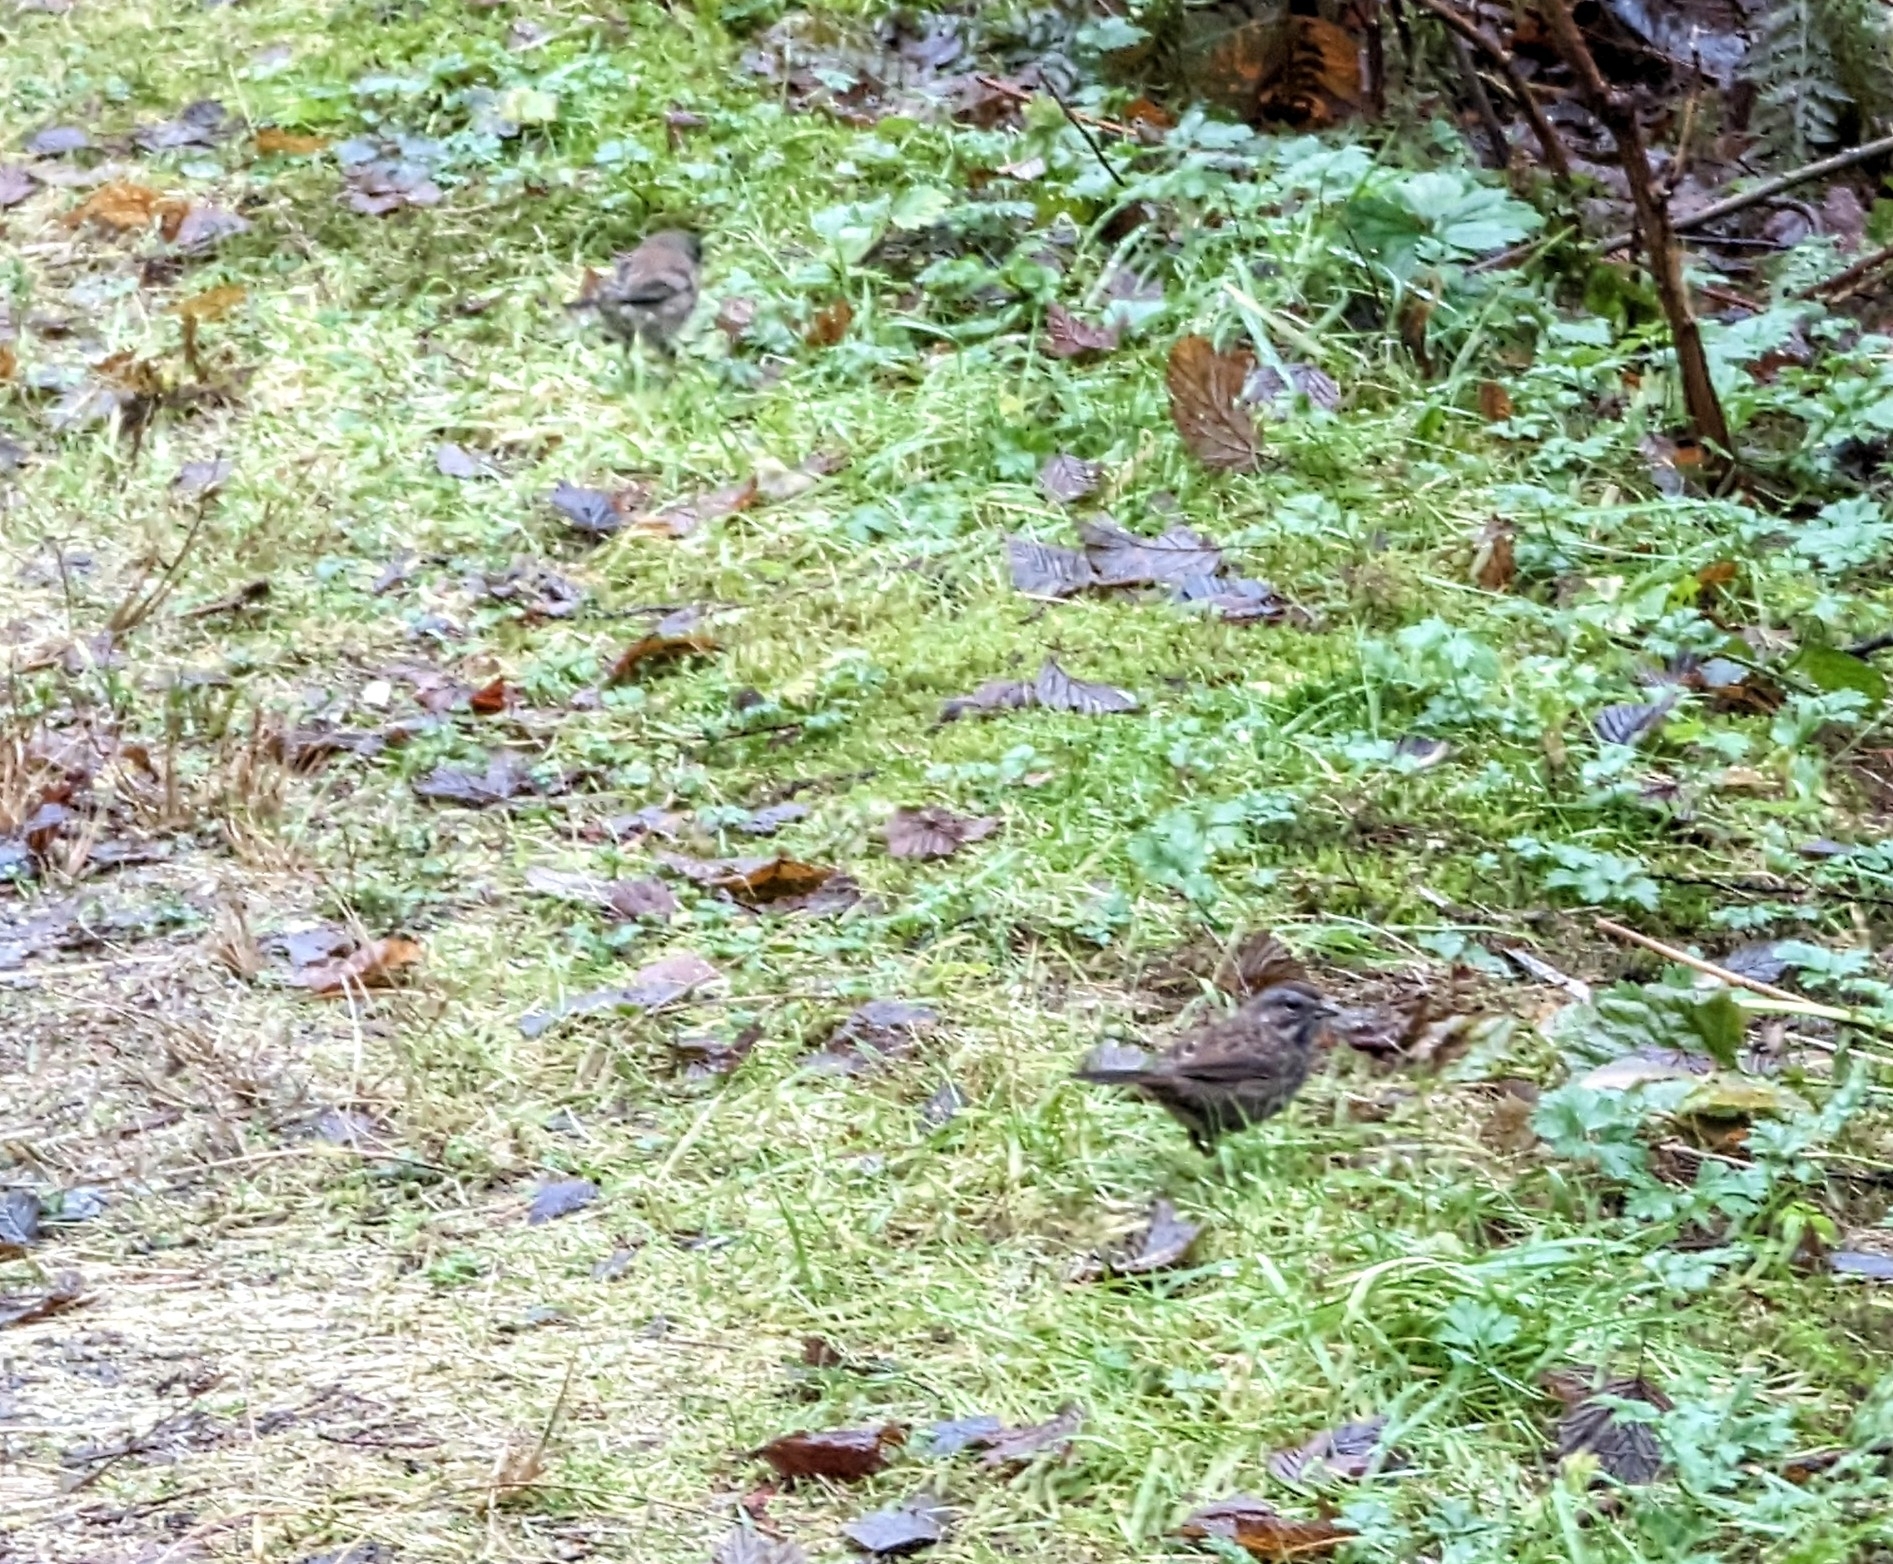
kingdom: Animalia
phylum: Chordata
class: Aves
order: Passeriformes
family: Passerellidae
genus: Melospiza
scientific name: Melospiza melodia
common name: Song sparrow
